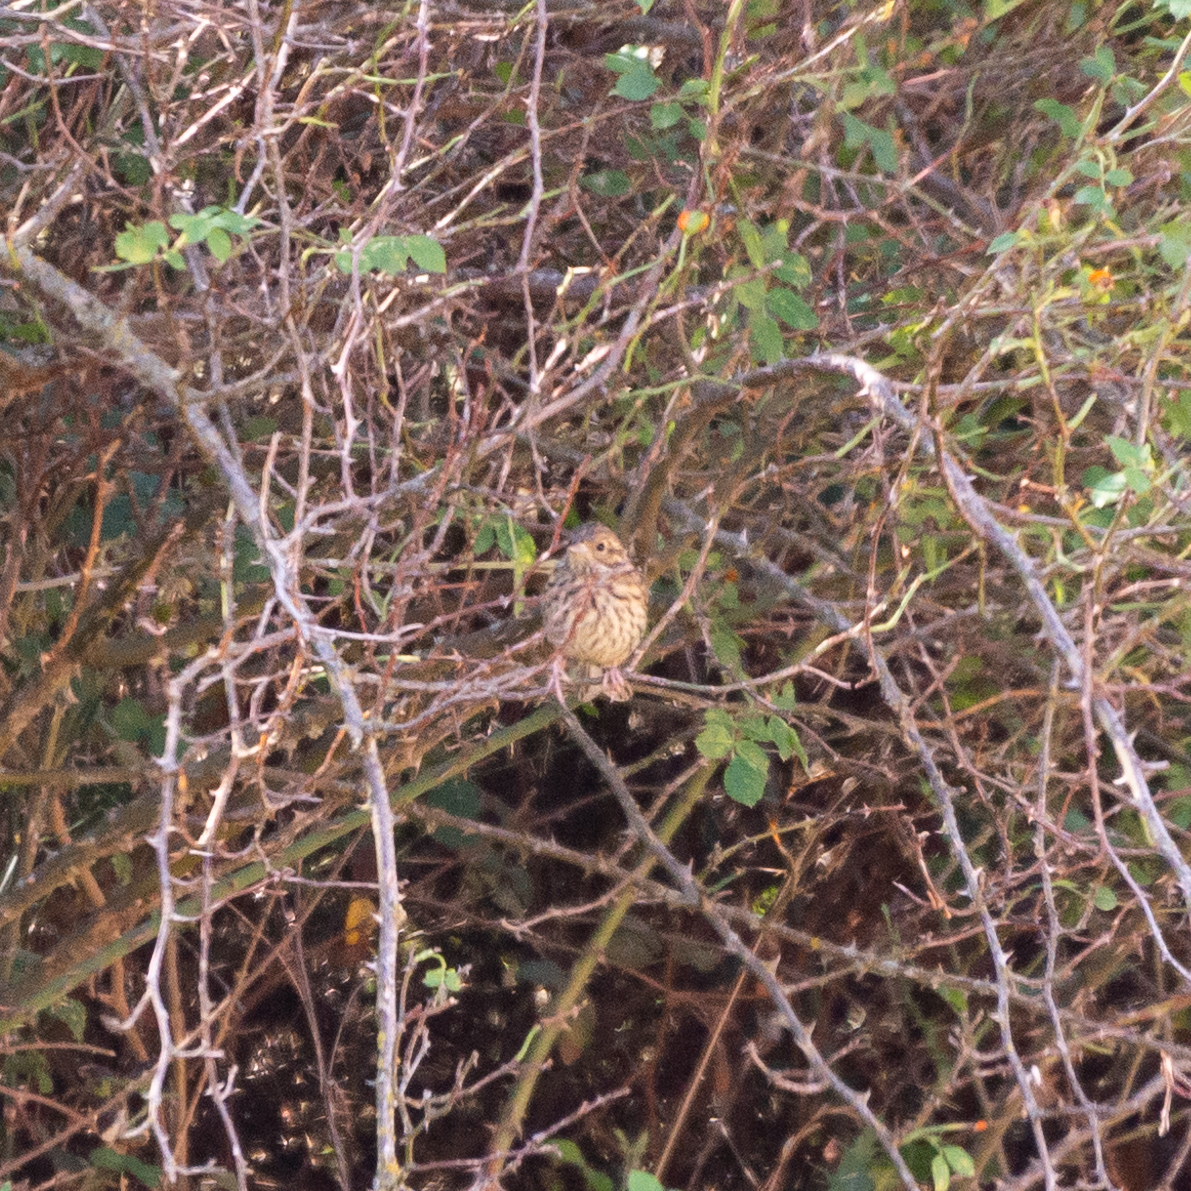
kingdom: Animalia
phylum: Chordata
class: Aves
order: Passeriformes
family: Emberizidae
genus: Emberiza
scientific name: Emberiza cirlus
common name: Cirl bunting
